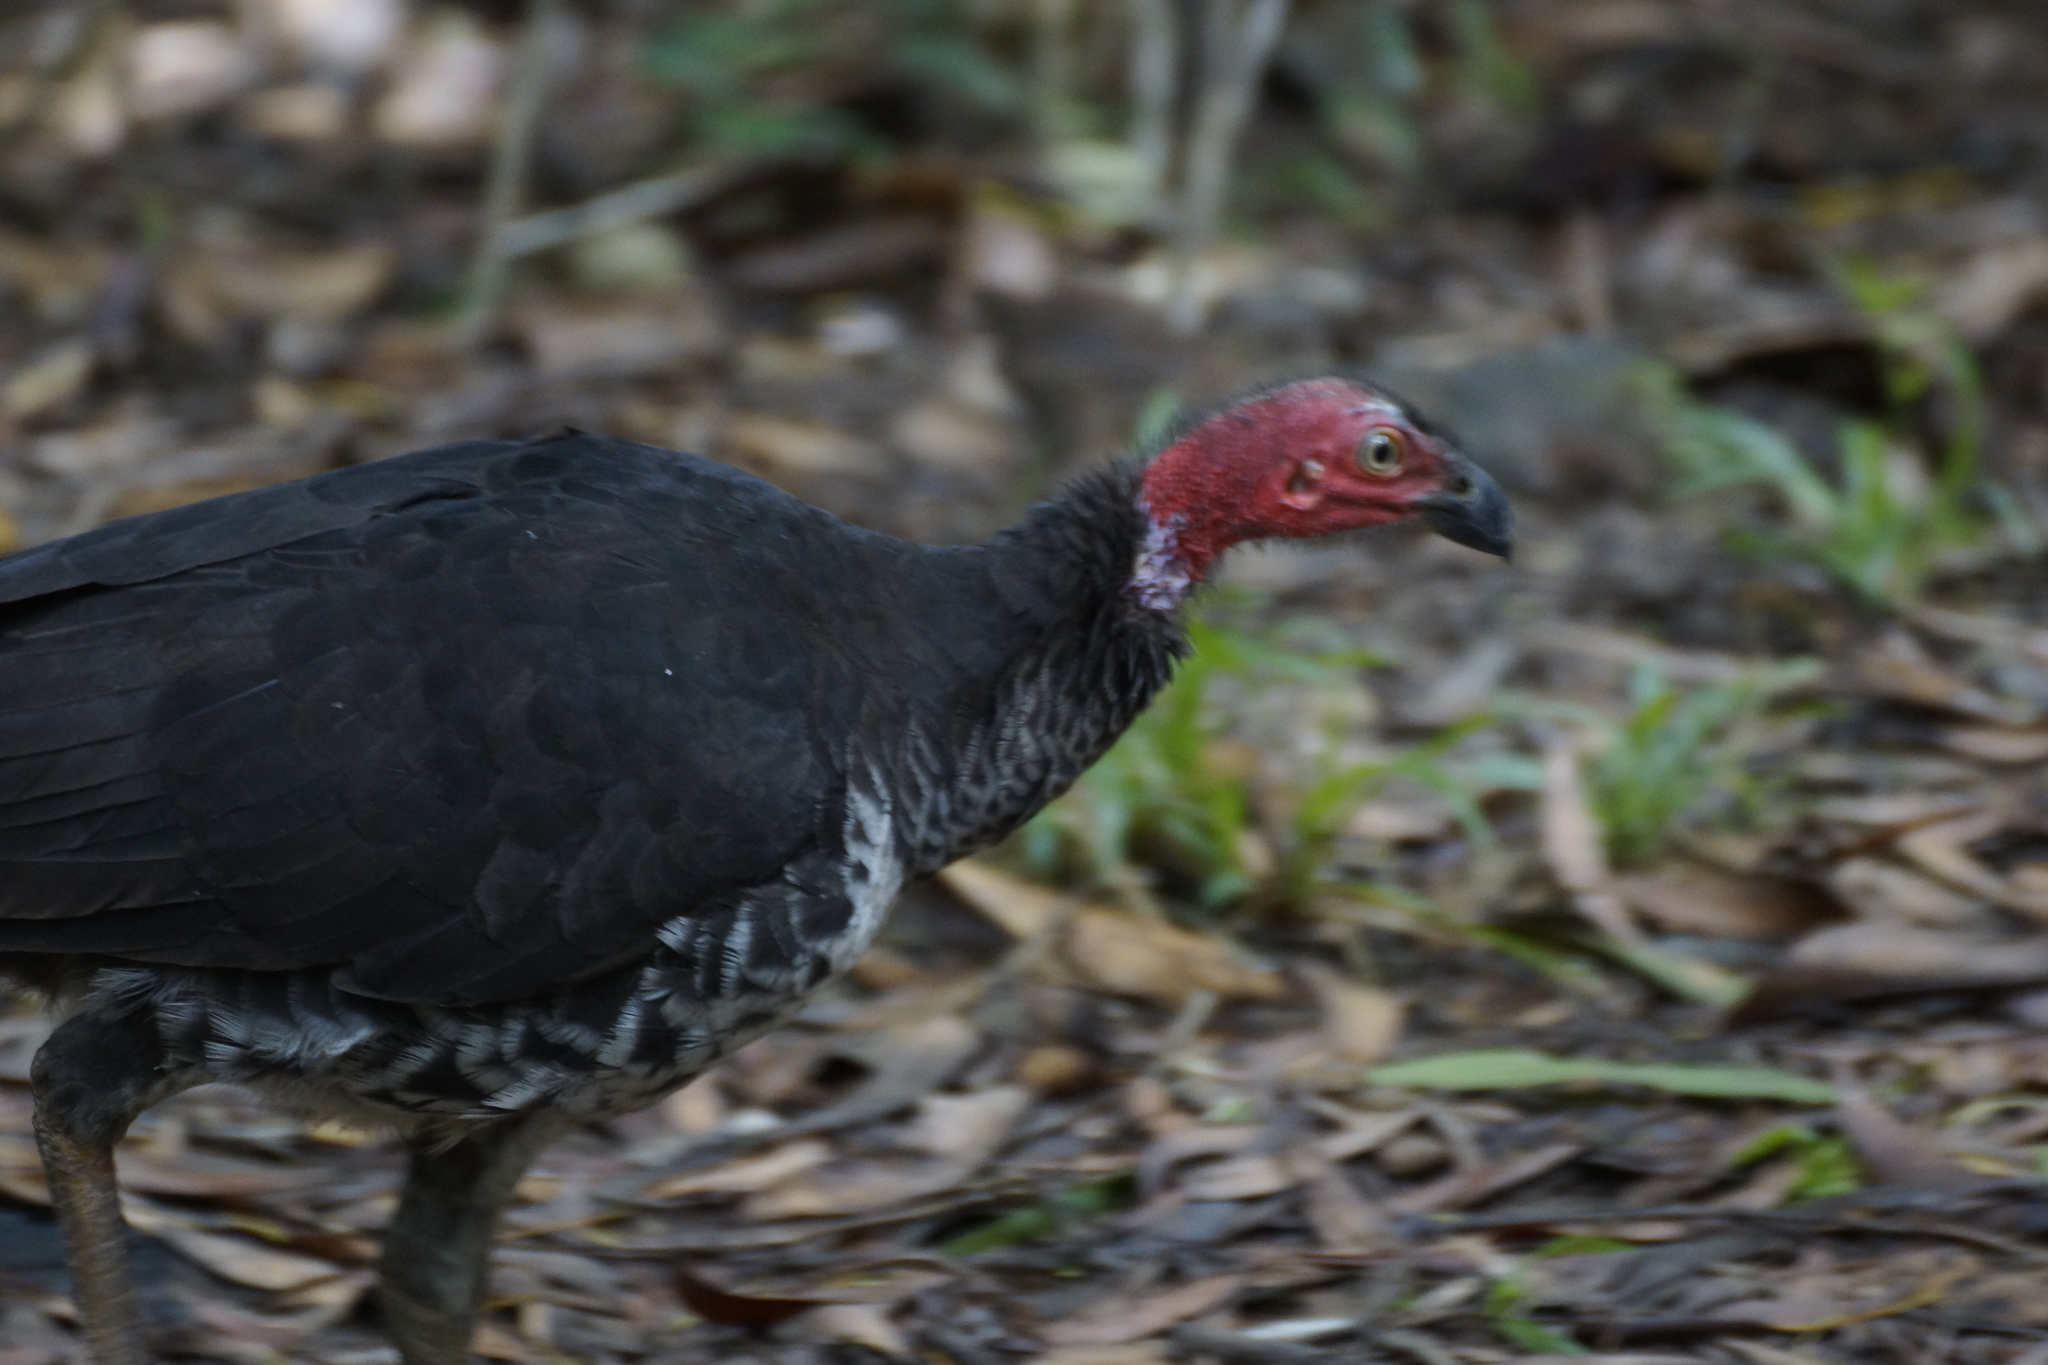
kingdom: Animalia
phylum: Chordata
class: Aves
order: Galliformes
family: Megapodiidae
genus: Alectura
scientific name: Alectura lathami
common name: Australian brushturkey
